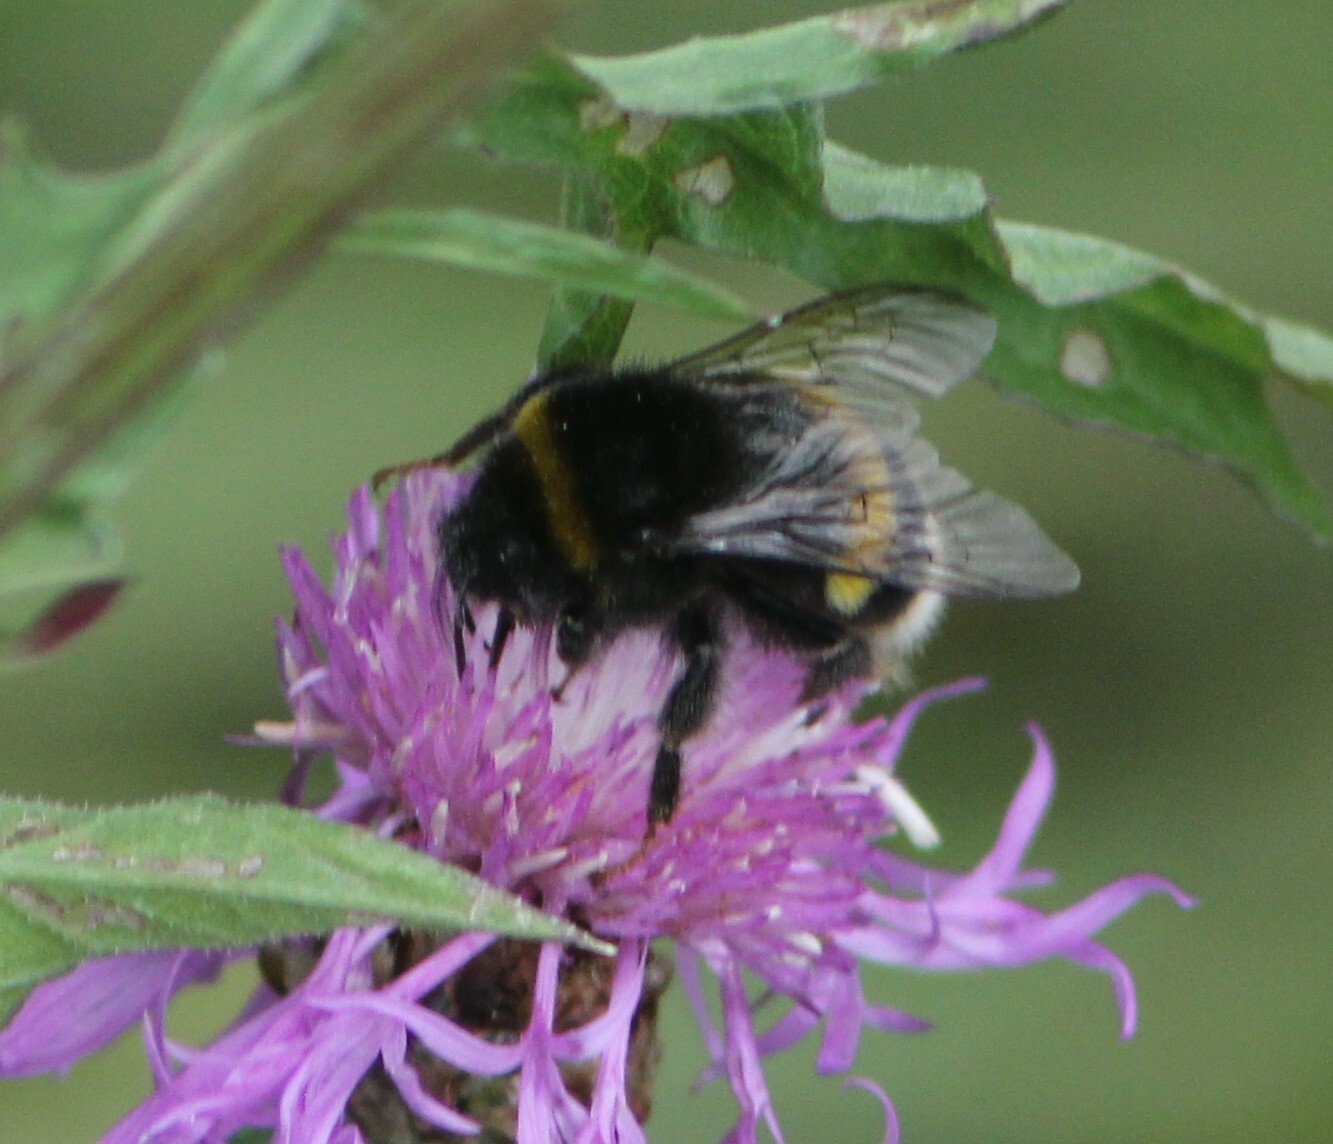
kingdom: Animalia
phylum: Arthropoda
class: Insecta
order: Hymenoptera
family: Apidae
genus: Bombus
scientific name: Bombus
